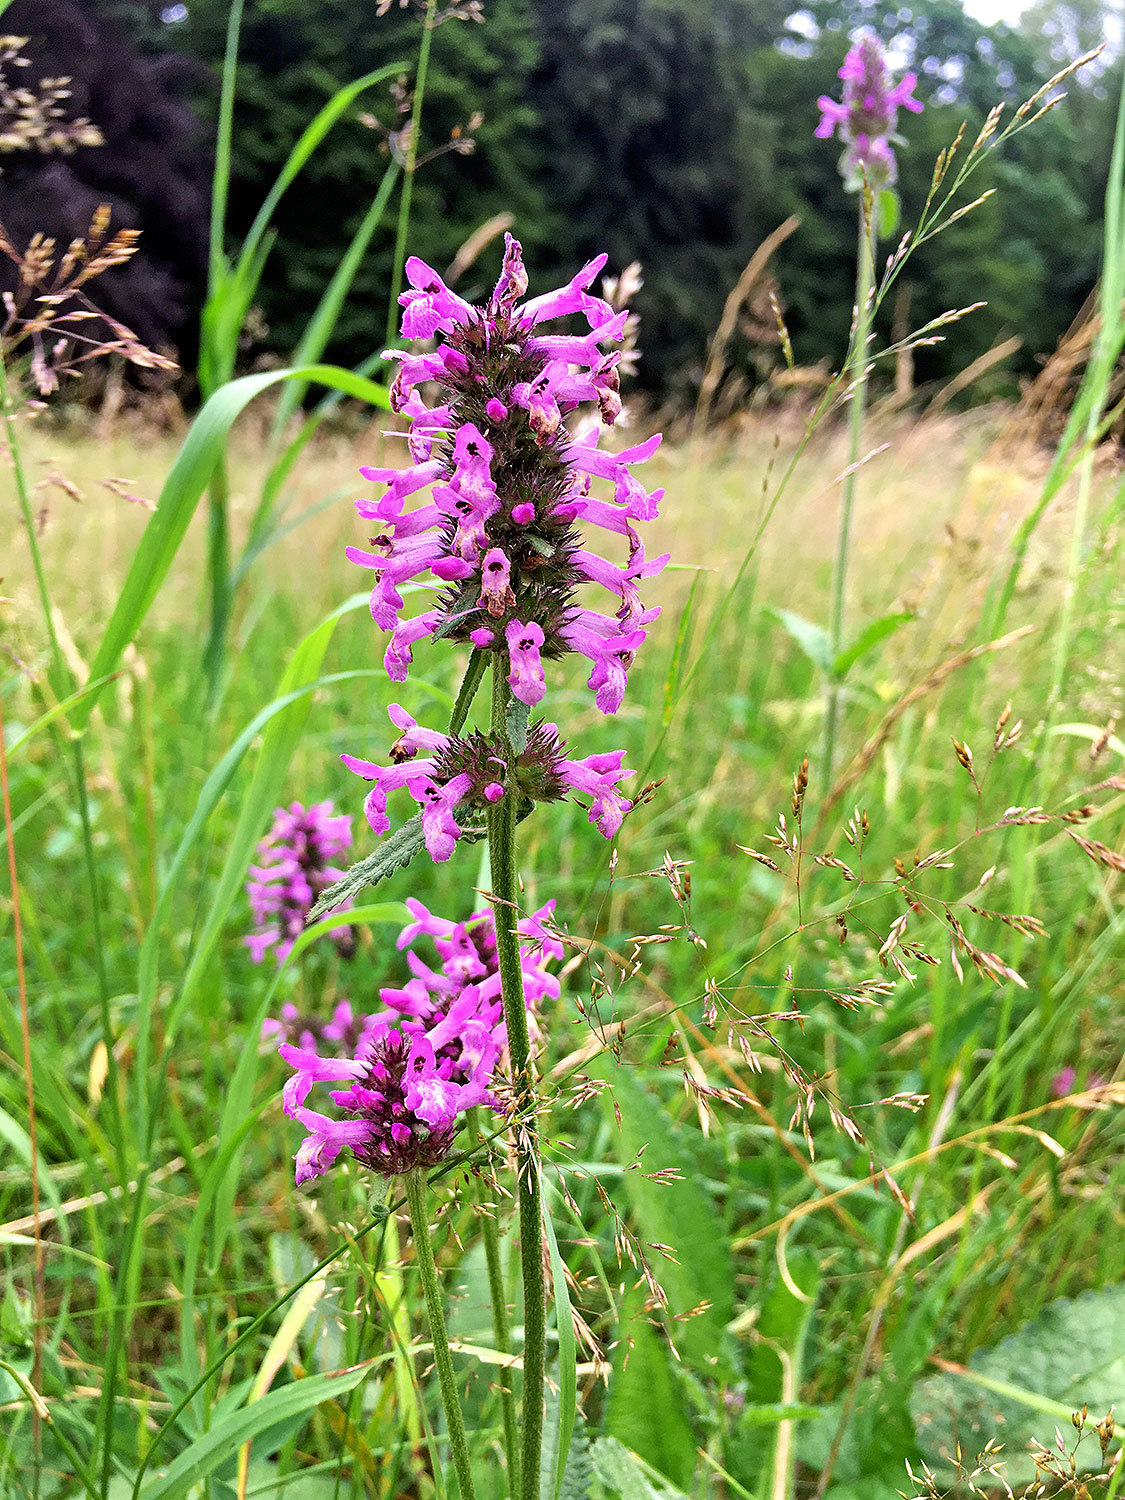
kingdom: Plantae
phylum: Tracheophyta
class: Magnoliopsida
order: Lamiales
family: Lamiaceae
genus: Betonica
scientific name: Betonica officinalis
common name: Bishop's-wort
